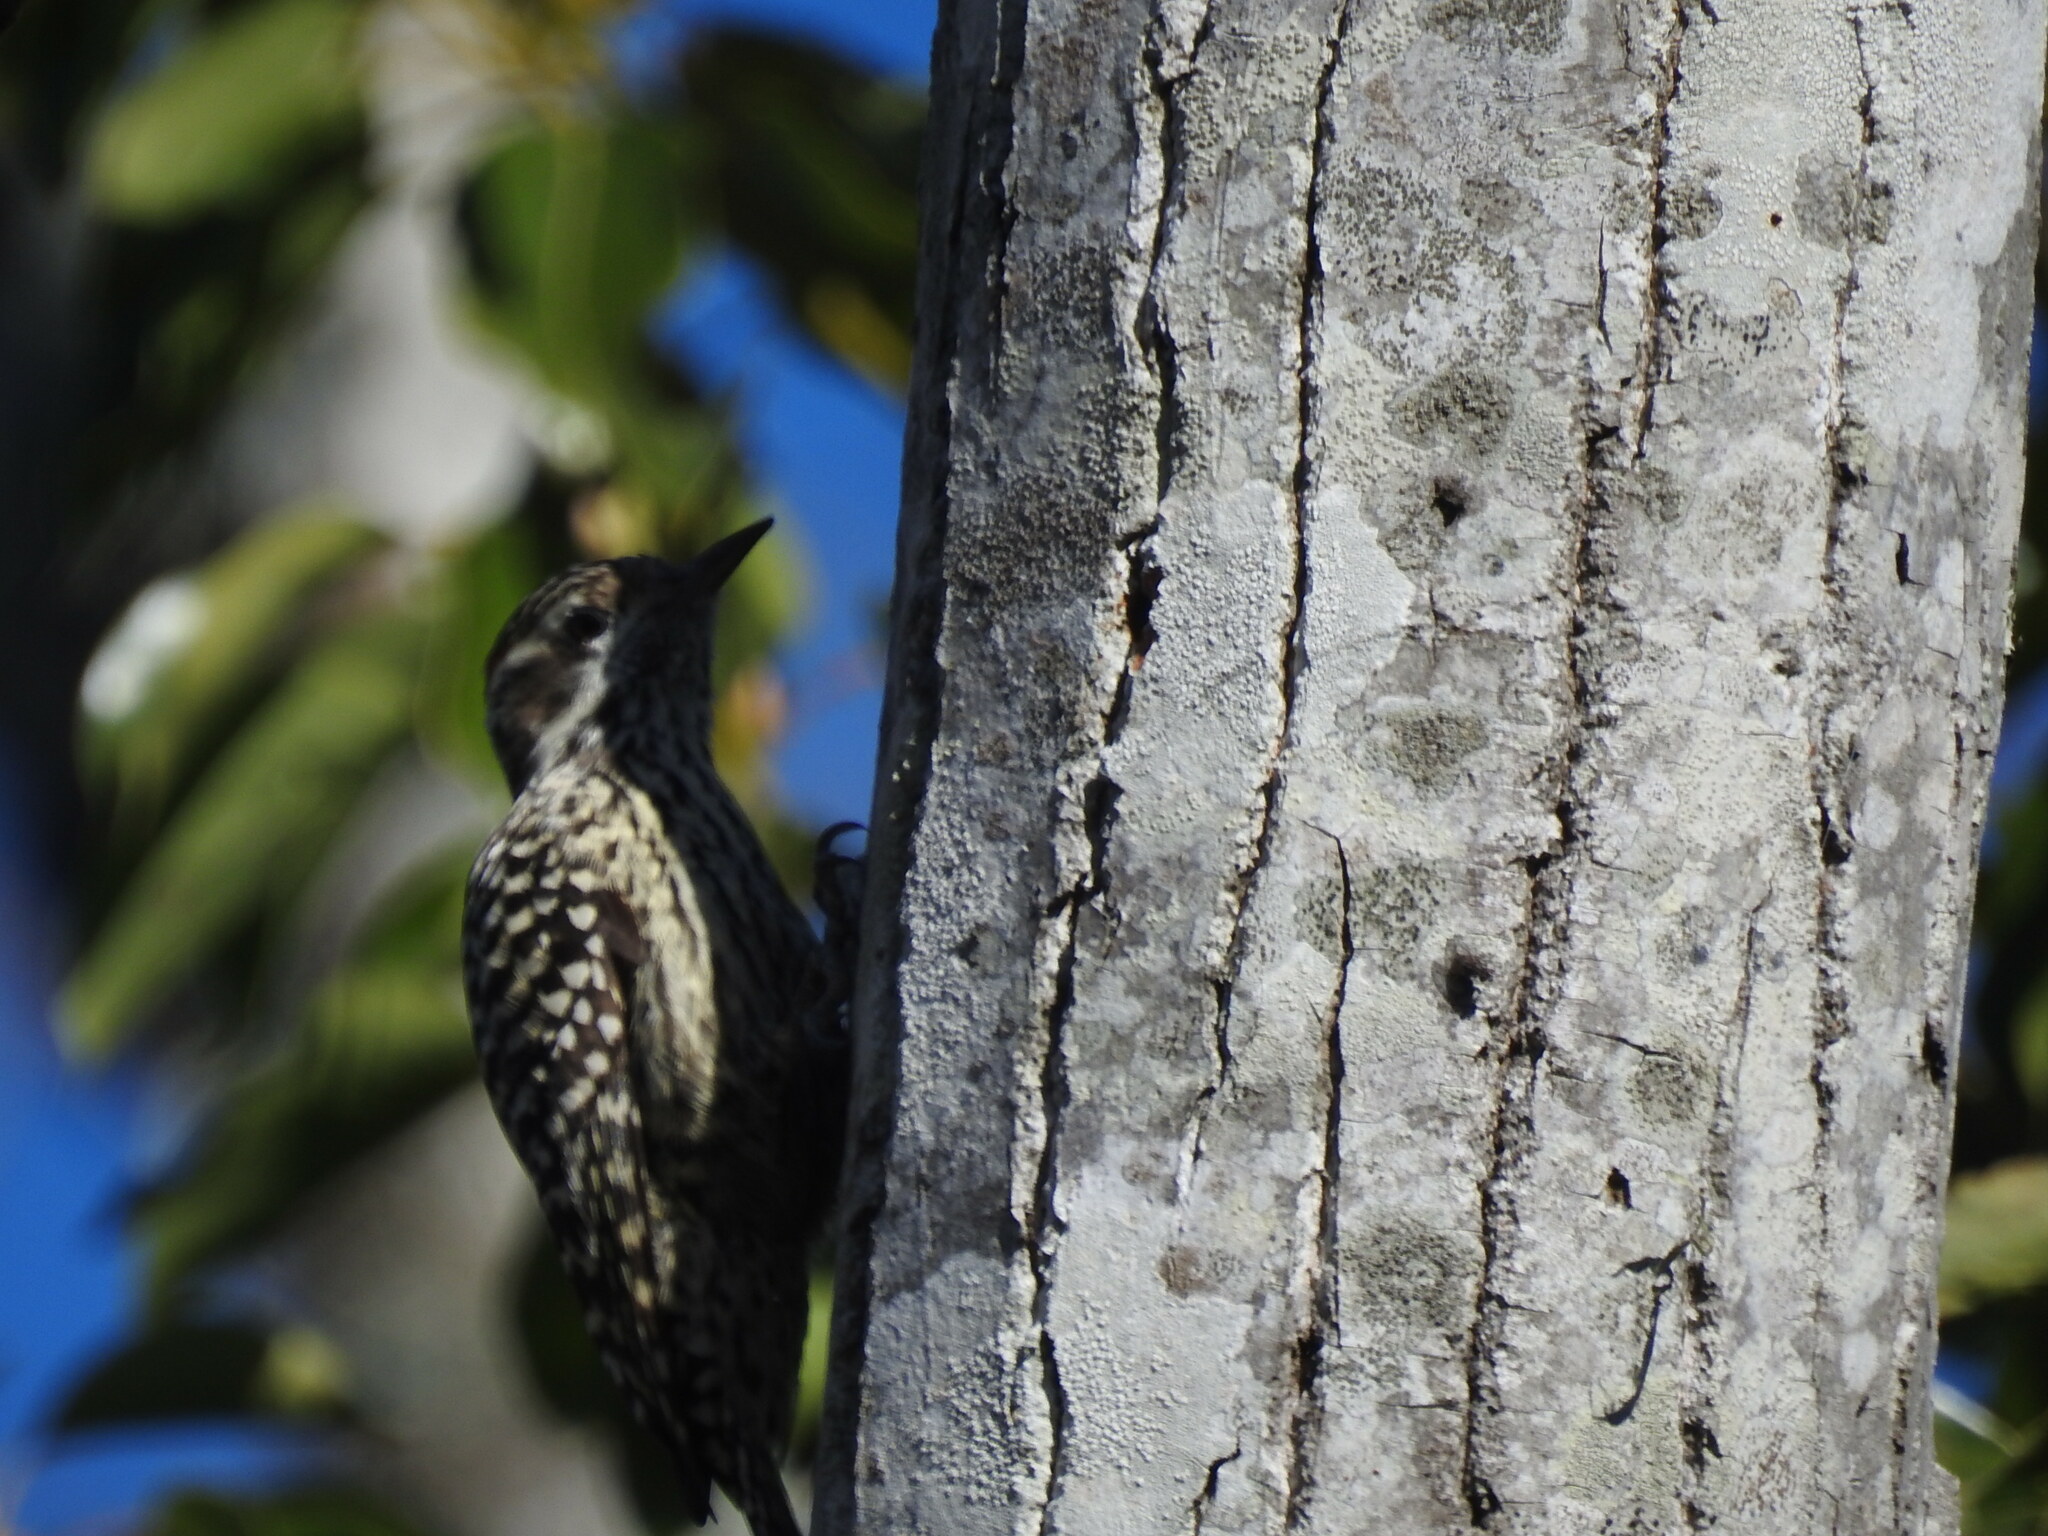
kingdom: Animalia
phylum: Chordata
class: Aves
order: Piciformes
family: Picidae
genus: Veniliornis
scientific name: Veniliornis mixtus
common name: Checkered woodpecker
